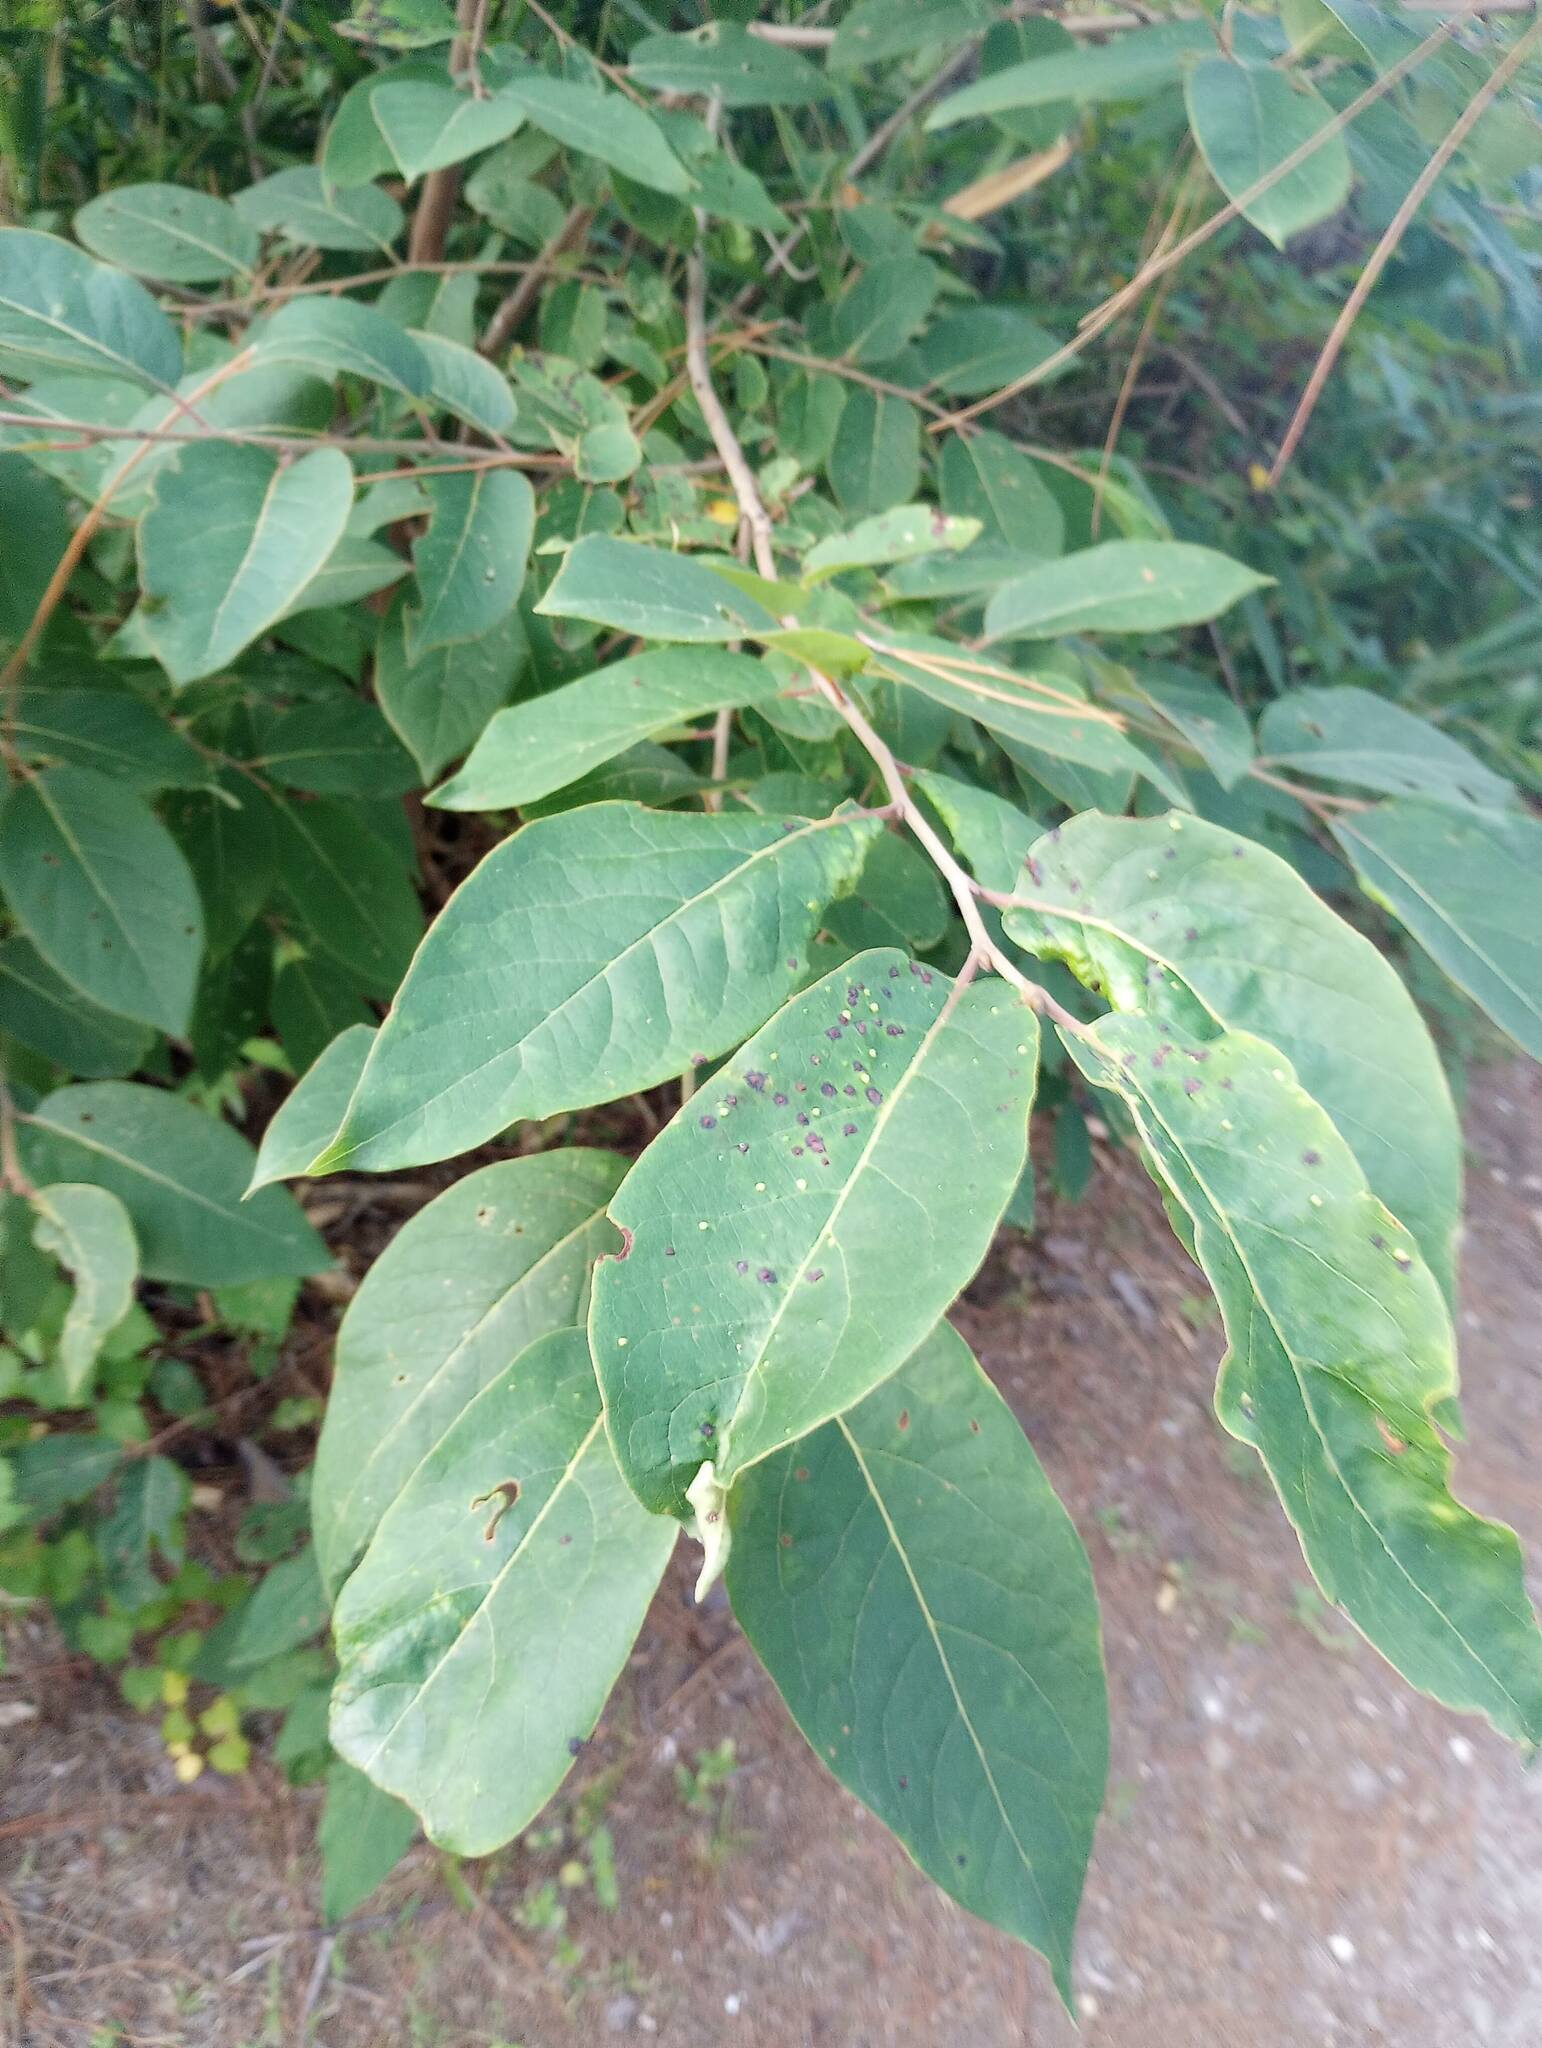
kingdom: Plantae
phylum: Tracheophyta
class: Magnoliopsida
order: Ericales
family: Ebenaceae
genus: Diospyros
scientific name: Diospyros virginiana
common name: Persimmon
